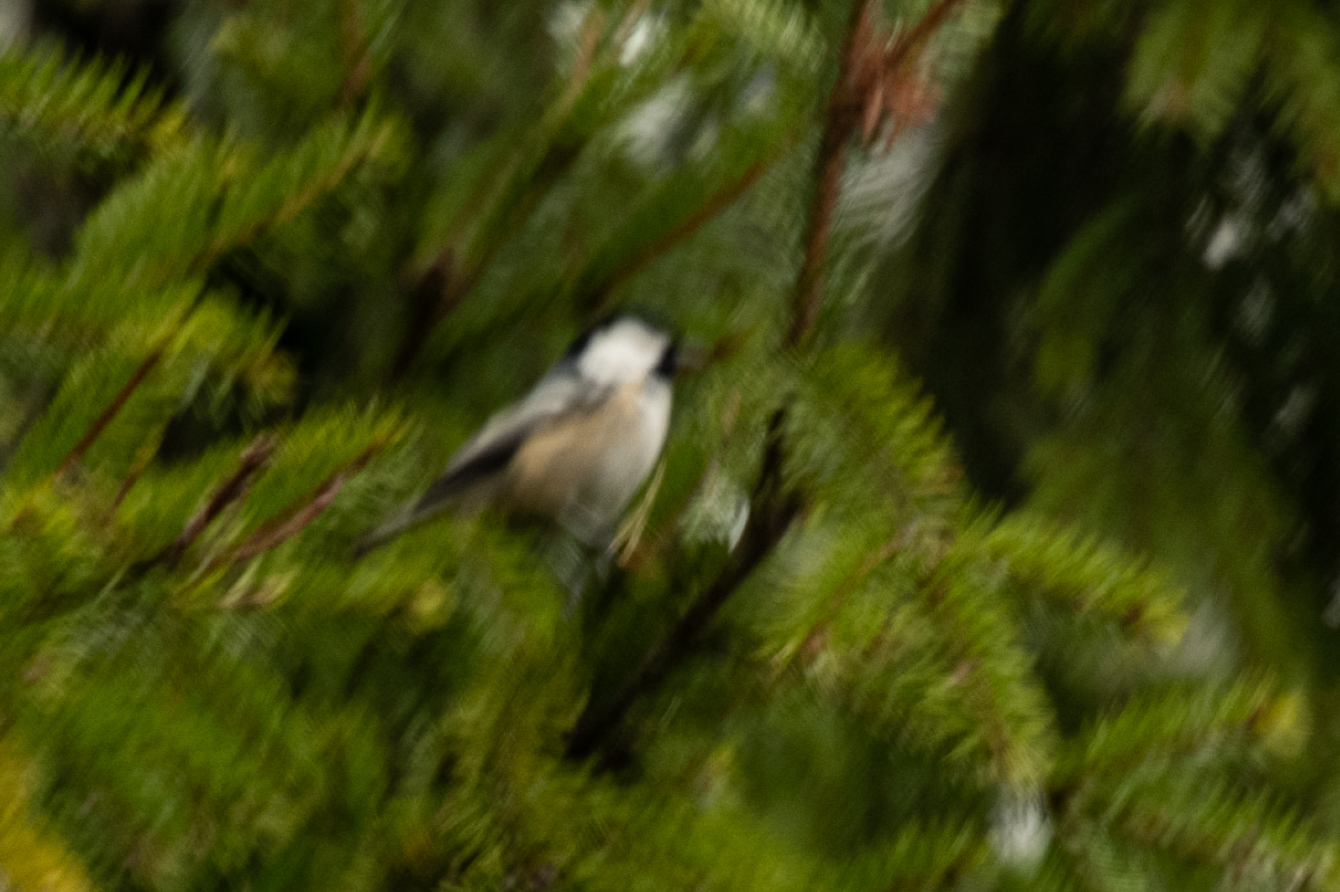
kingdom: Animalia
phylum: Chordata
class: Aves
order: Passeriformes
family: Paridae
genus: Periparus
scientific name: Periparus ater
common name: Coal tit
